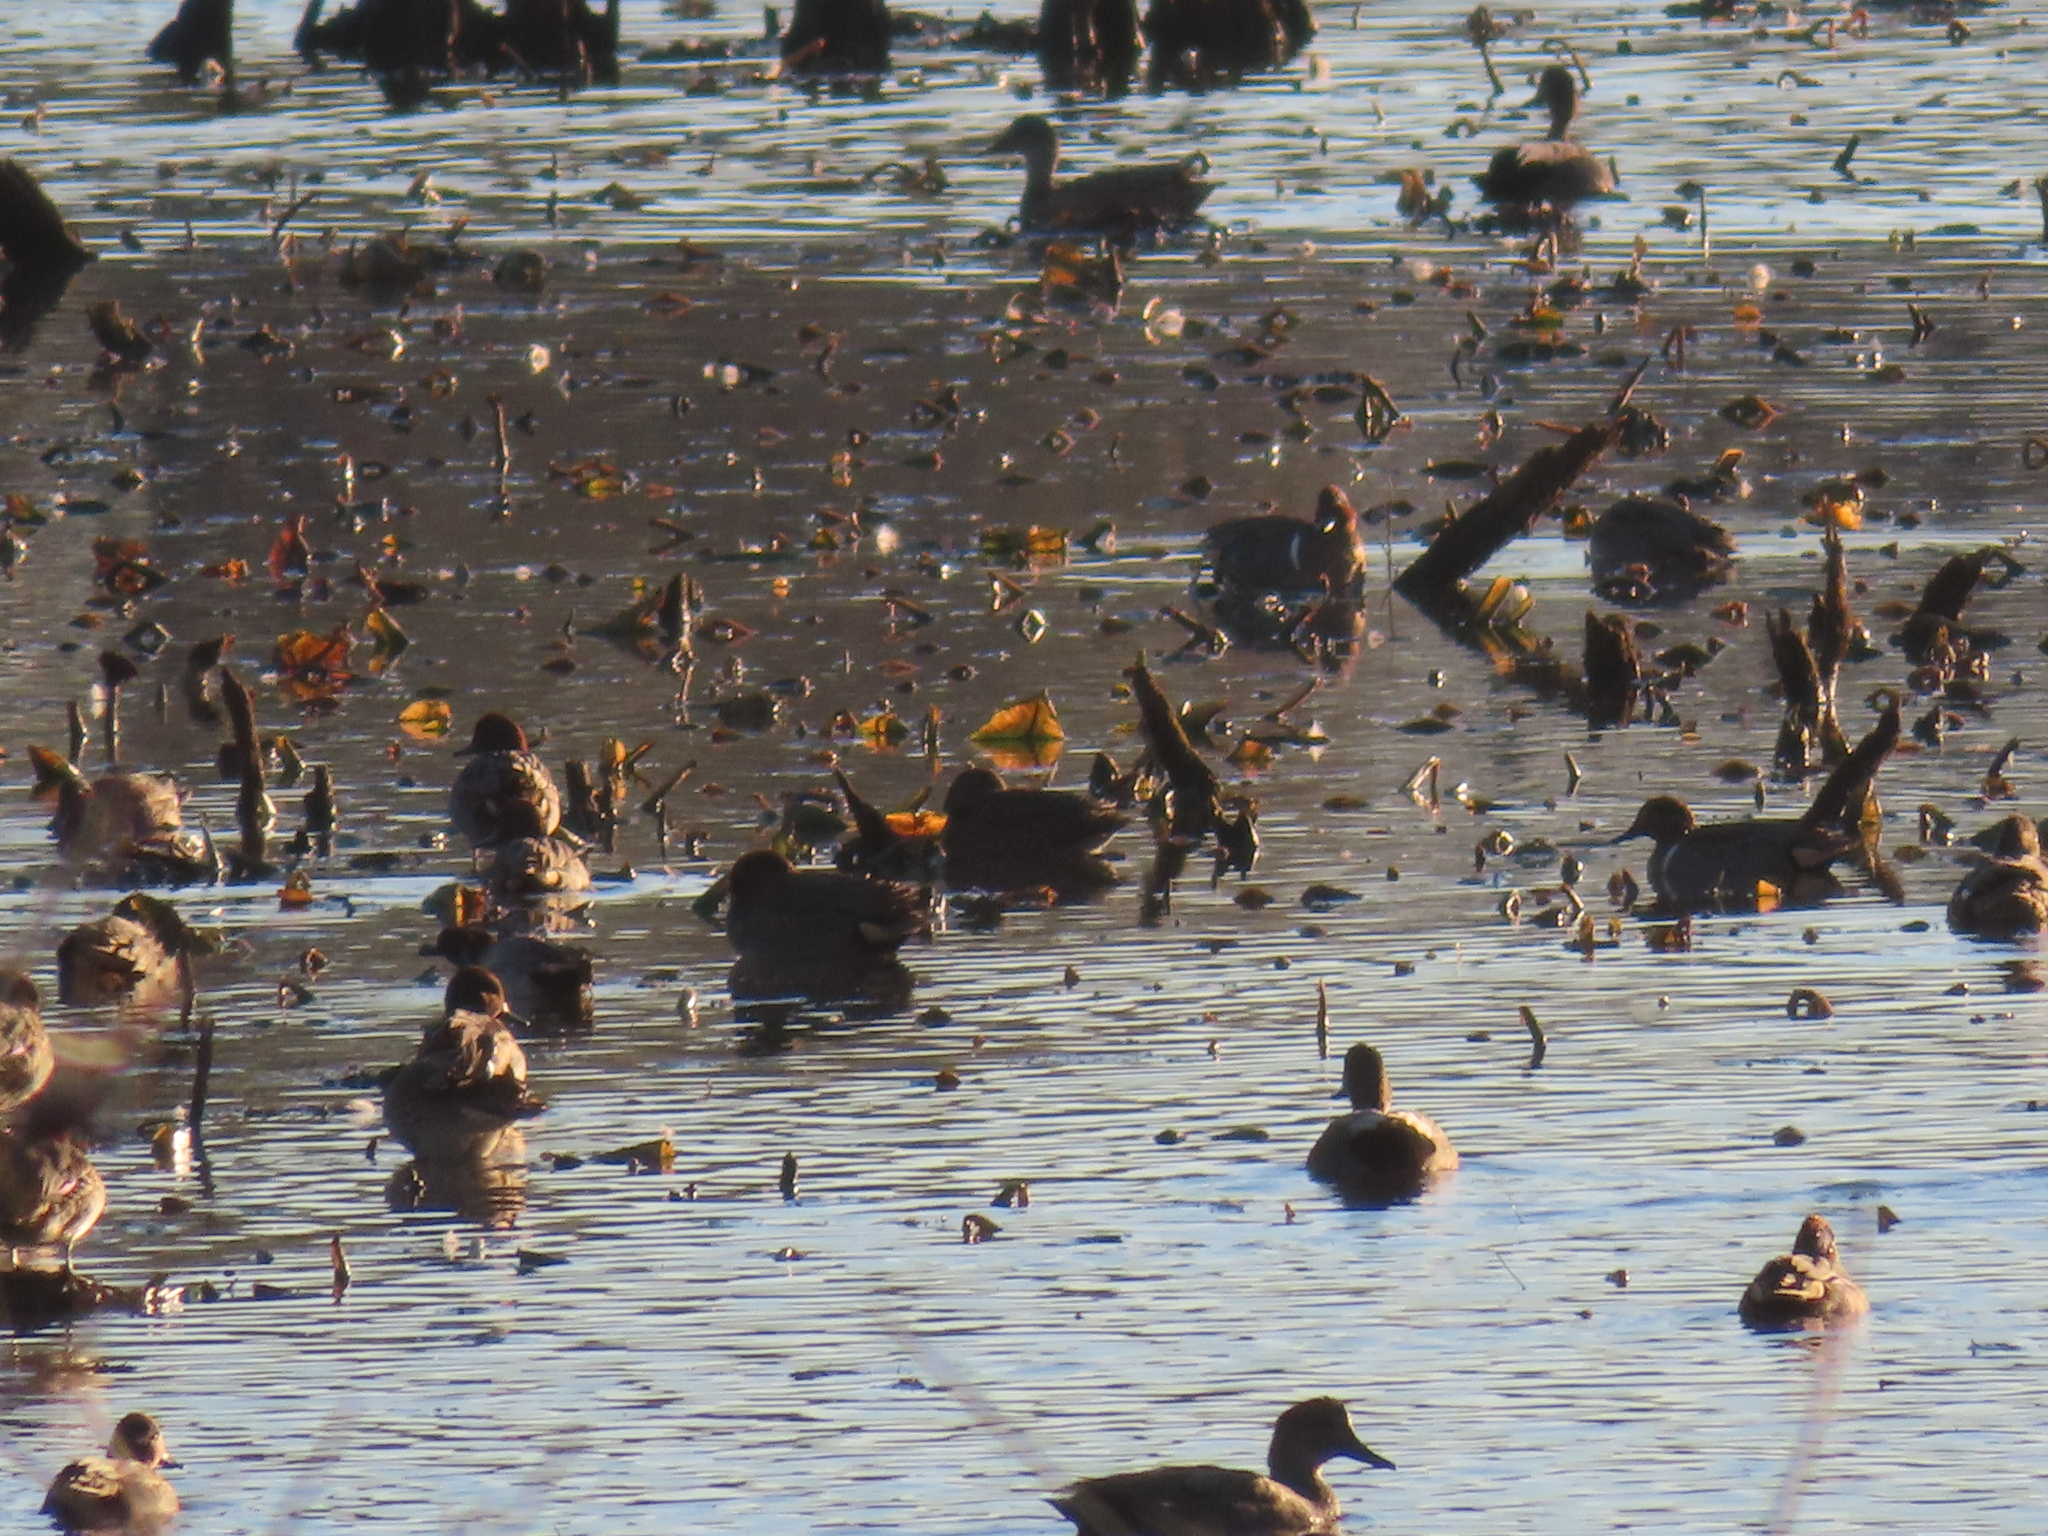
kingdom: Animalia
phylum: Chordata
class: Aves
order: Anseriformes
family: Anatidae
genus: Anas
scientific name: Anas carolinensis
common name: Green-winged teal
